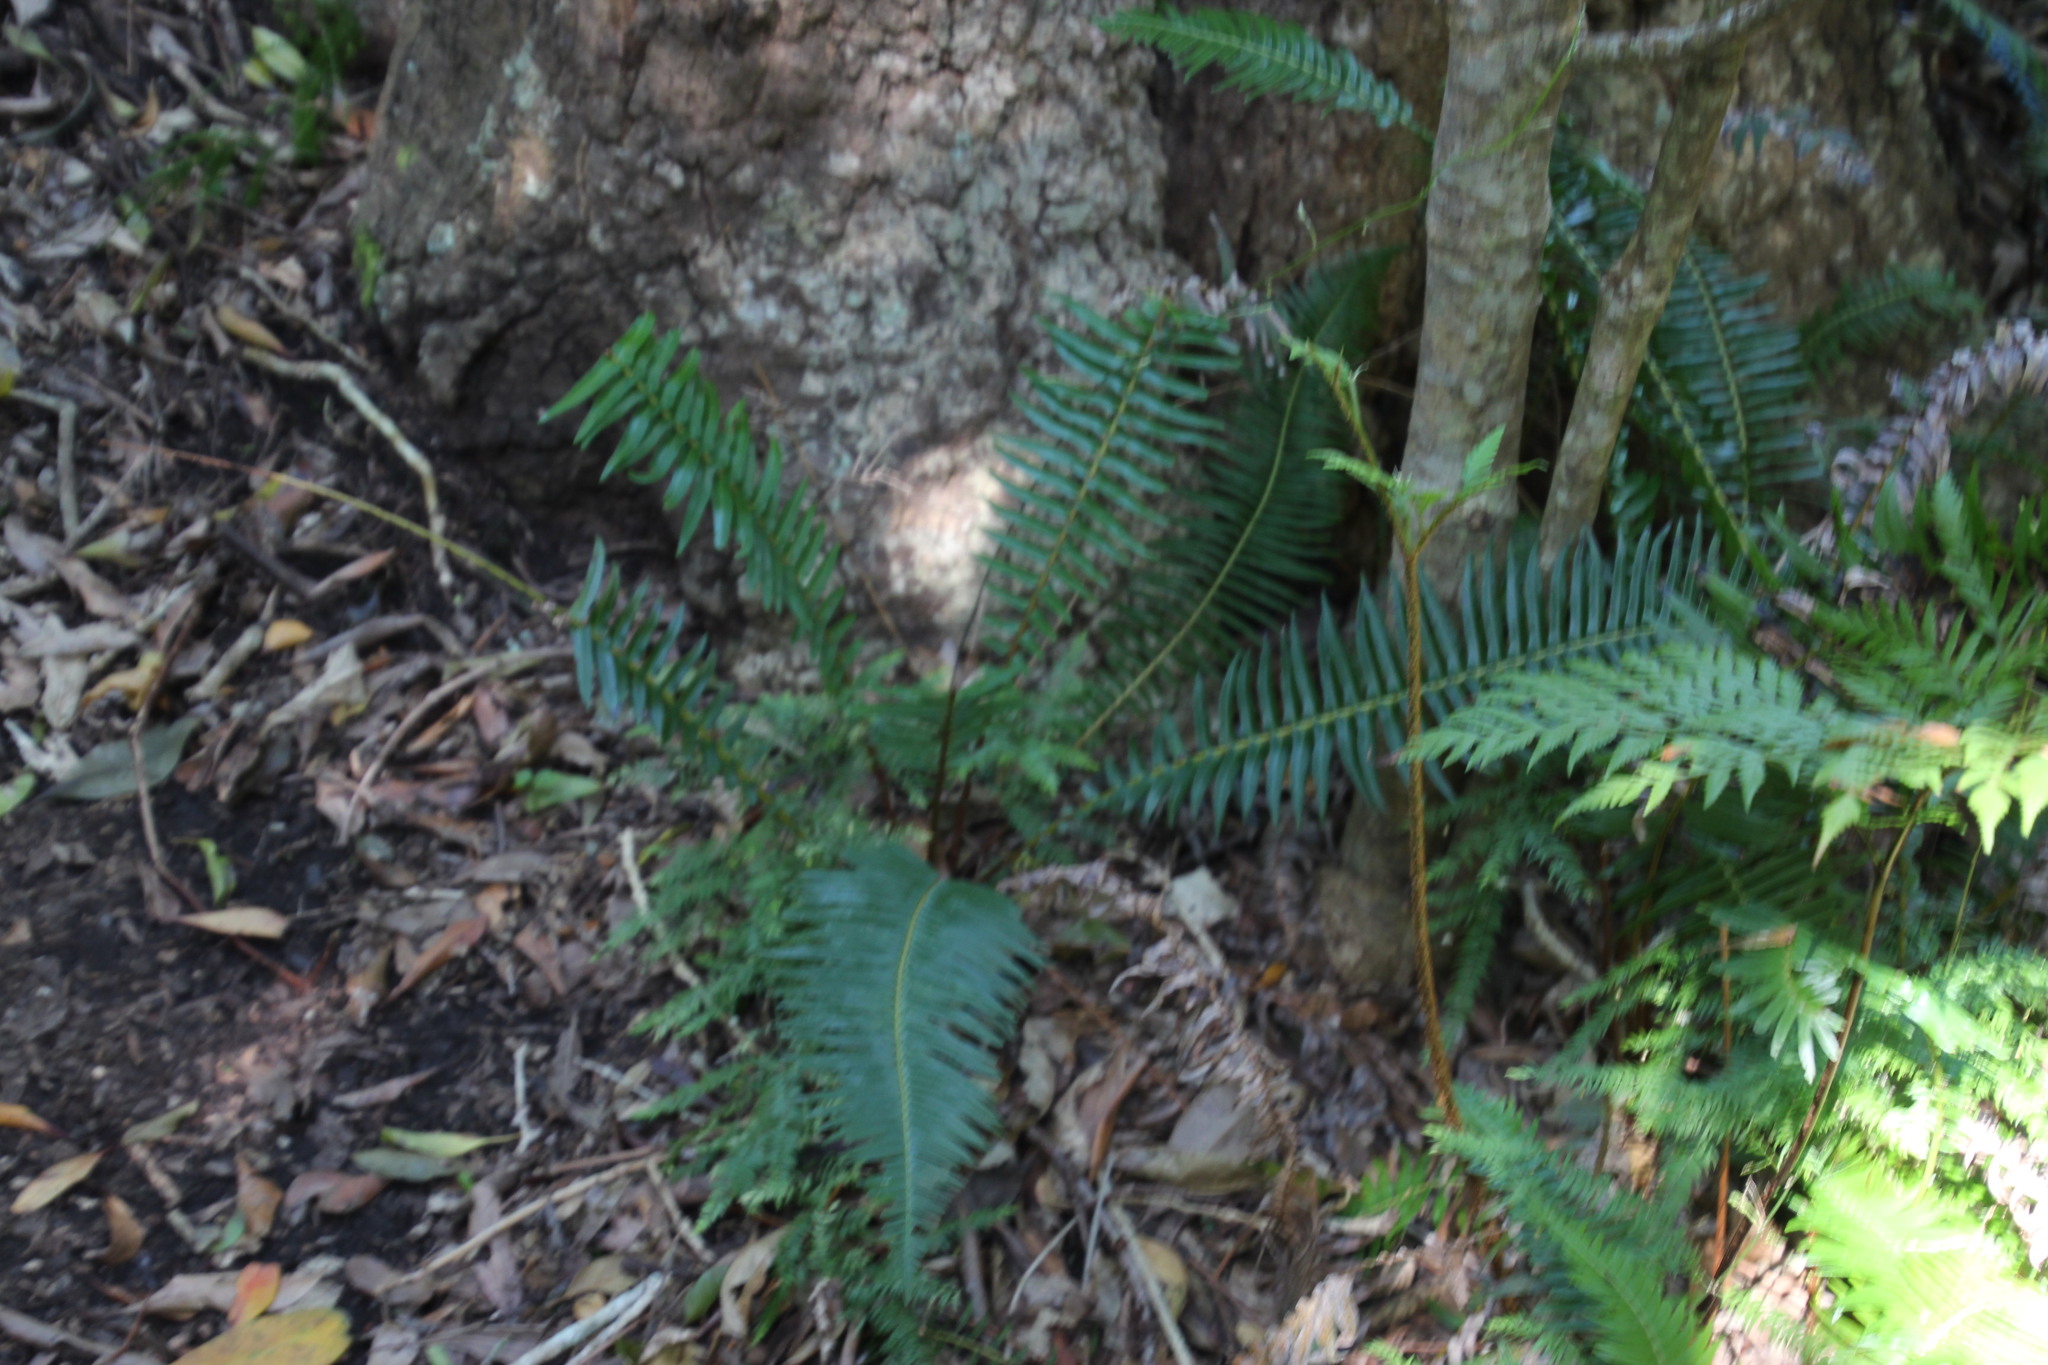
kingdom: Plantae
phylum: Tracheophyta
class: Polypodiopsida
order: Polypodiales
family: Blechnaceae
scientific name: Blechnaceae
